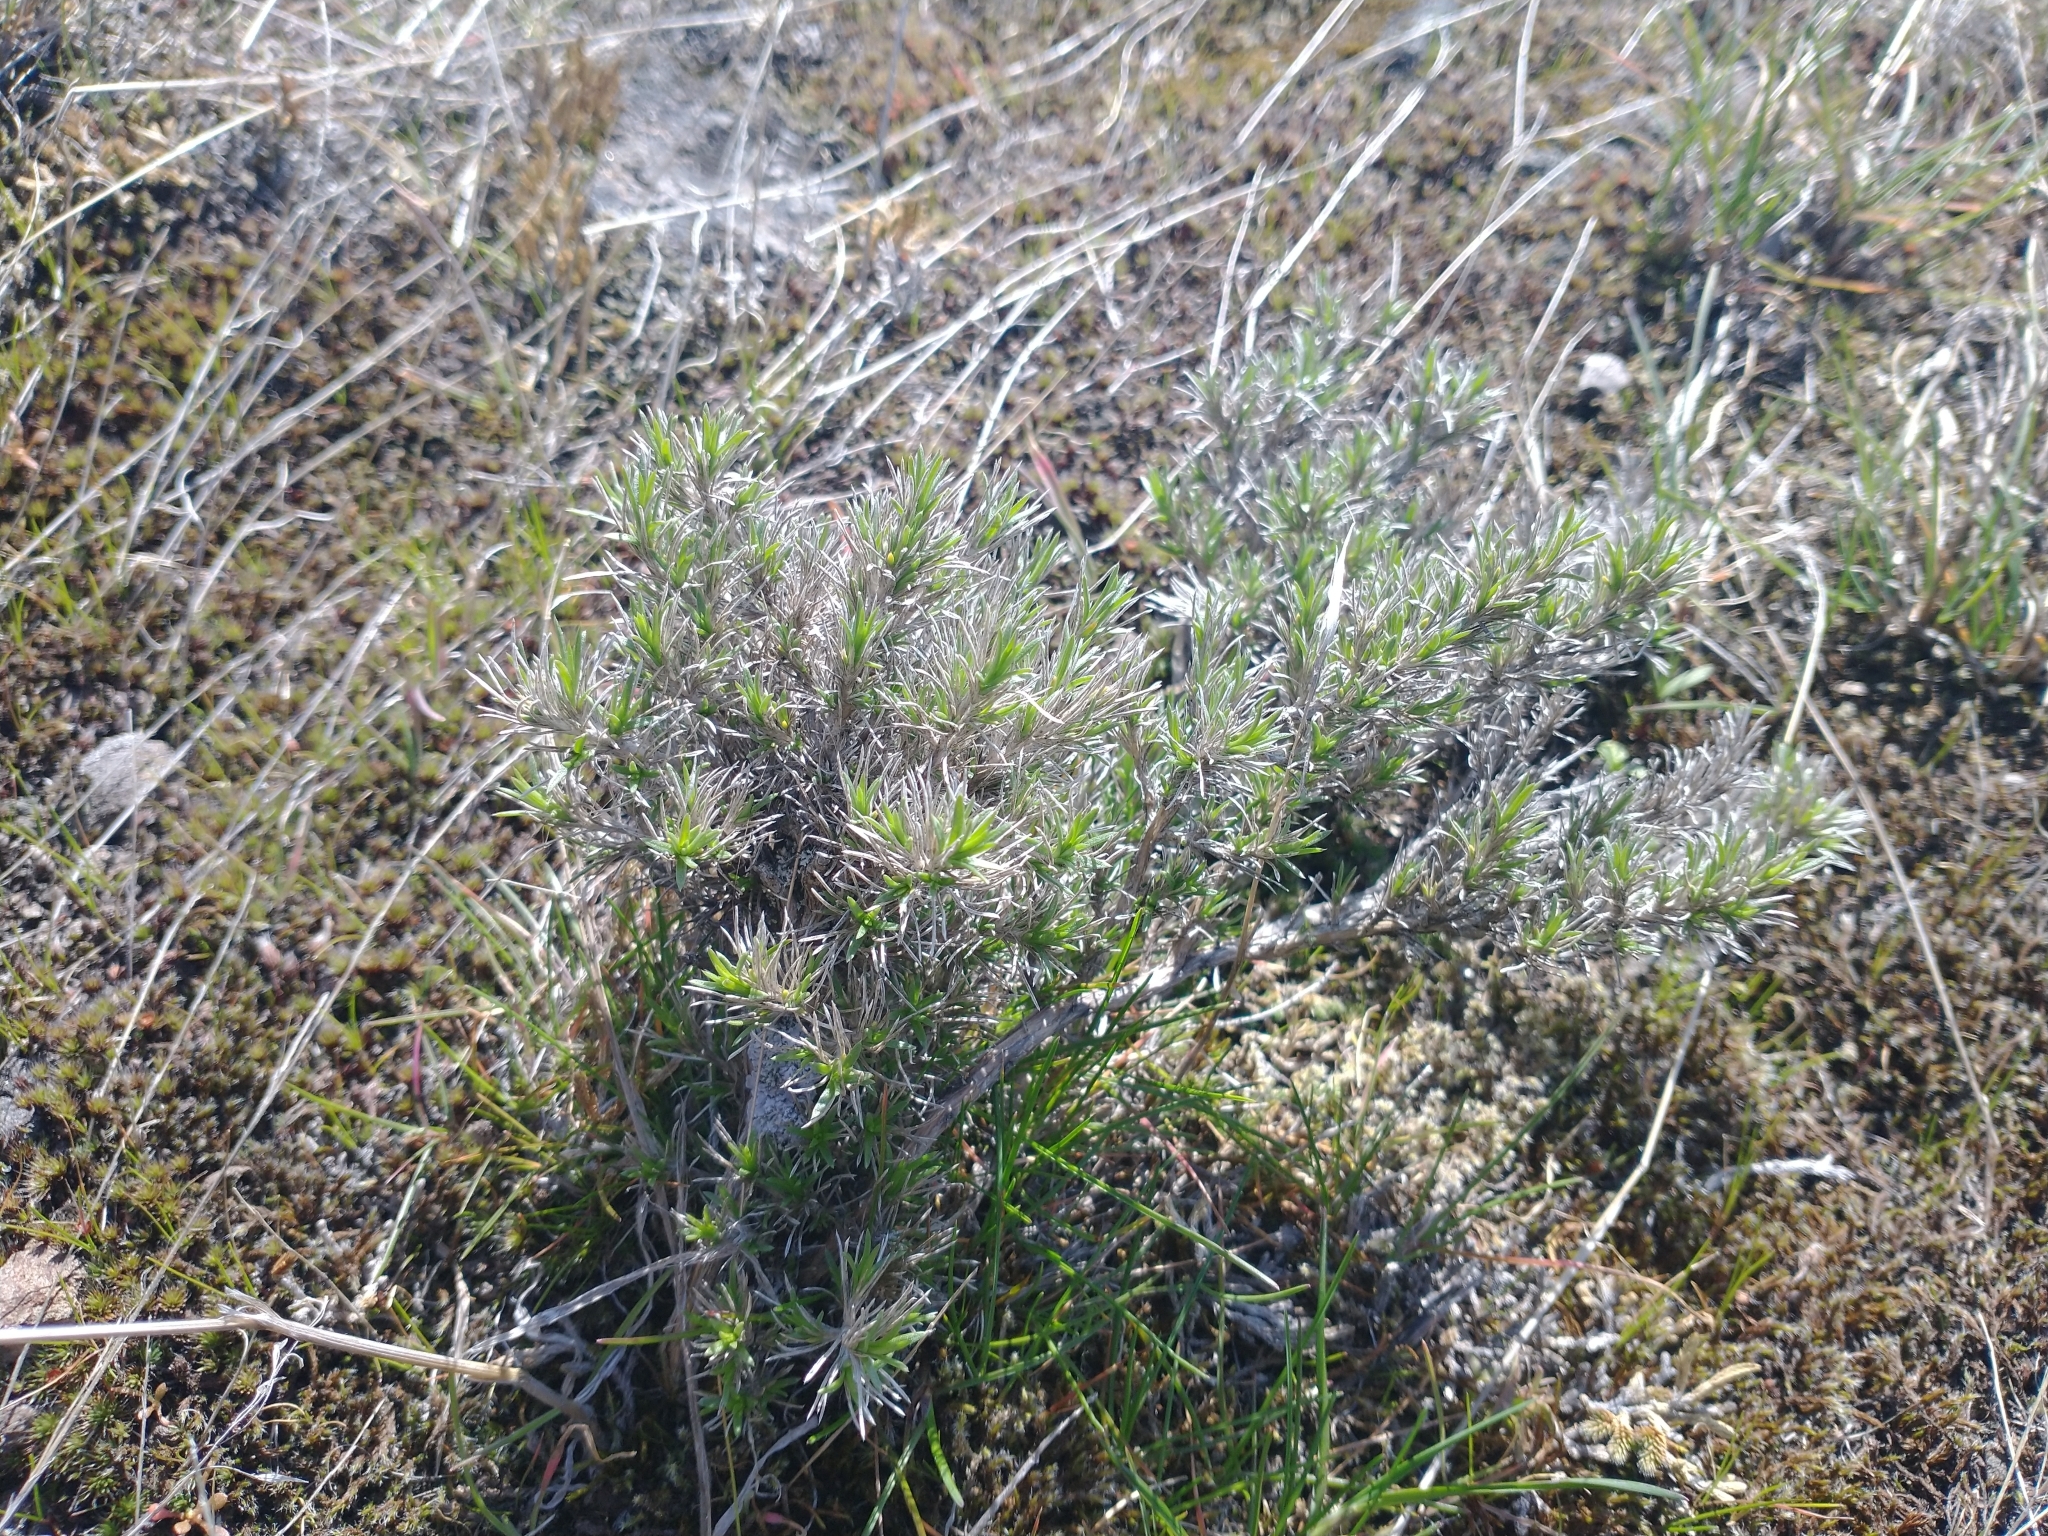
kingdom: Plantae
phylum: Tracheophyta
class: Magnoliopsida
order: Ericales
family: Polemoniaceae
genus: Phlox
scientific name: Phlox hoodii
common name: Moss phlox
